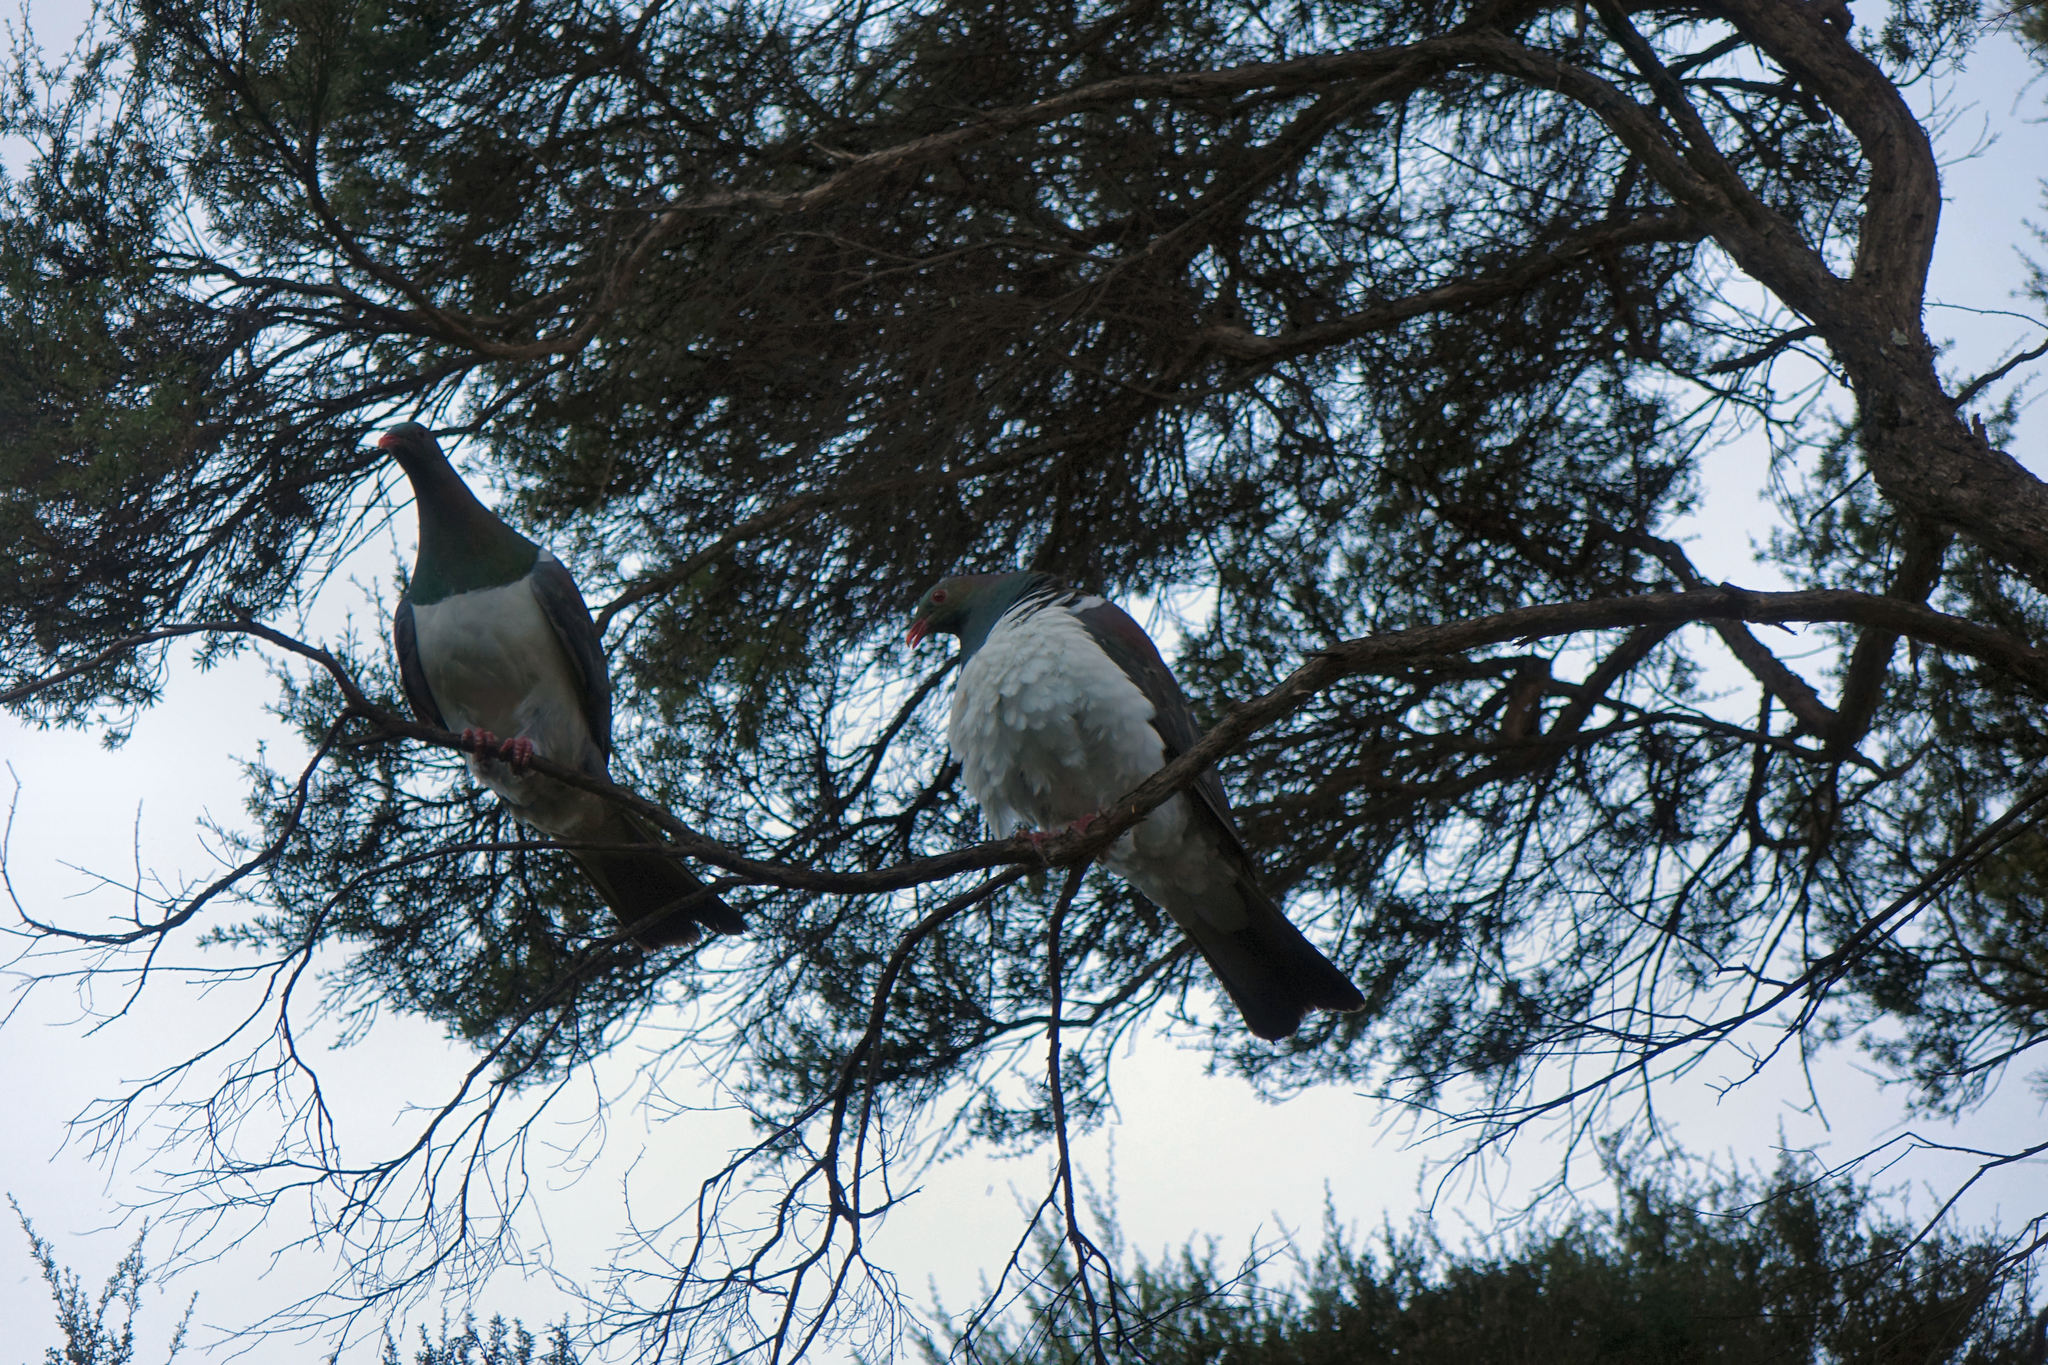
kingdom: Animalia
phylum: Chordata
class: Aves
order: Columbiformes
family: Columbidae
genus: Hemiphaga
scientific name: Hemiphaga novaeseelandiae
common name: New zealand pigeon
